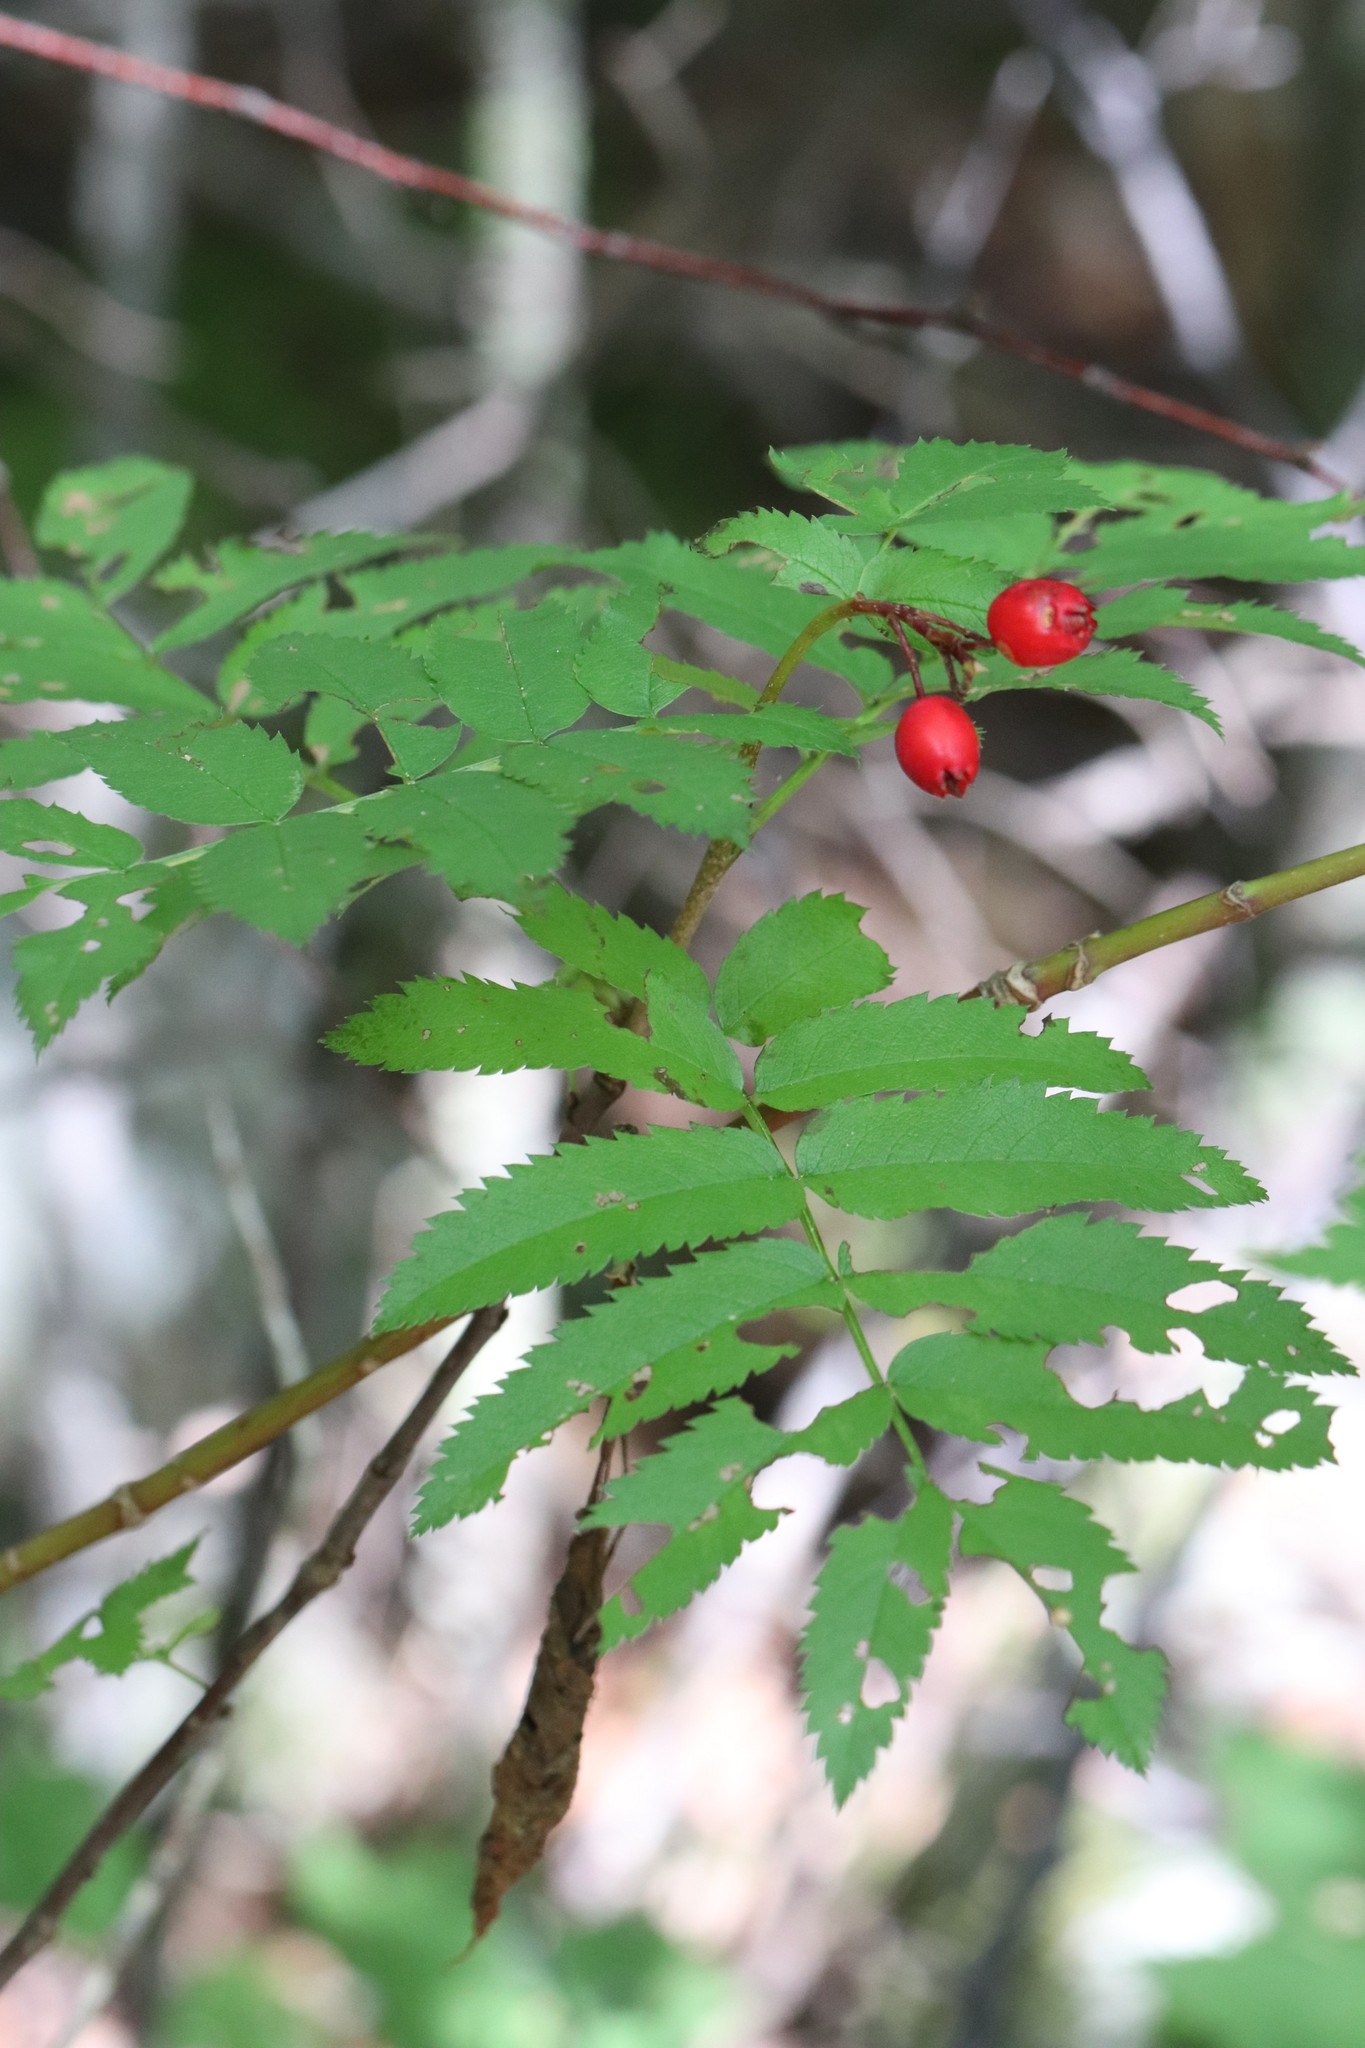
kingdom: Plantae
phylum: Tracheophyta
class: Magnoliopsida
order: Rosales
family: Rosaceae
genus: Sorbus
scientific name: Sorbus sambucifolia
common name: Siberian mountain-ash
